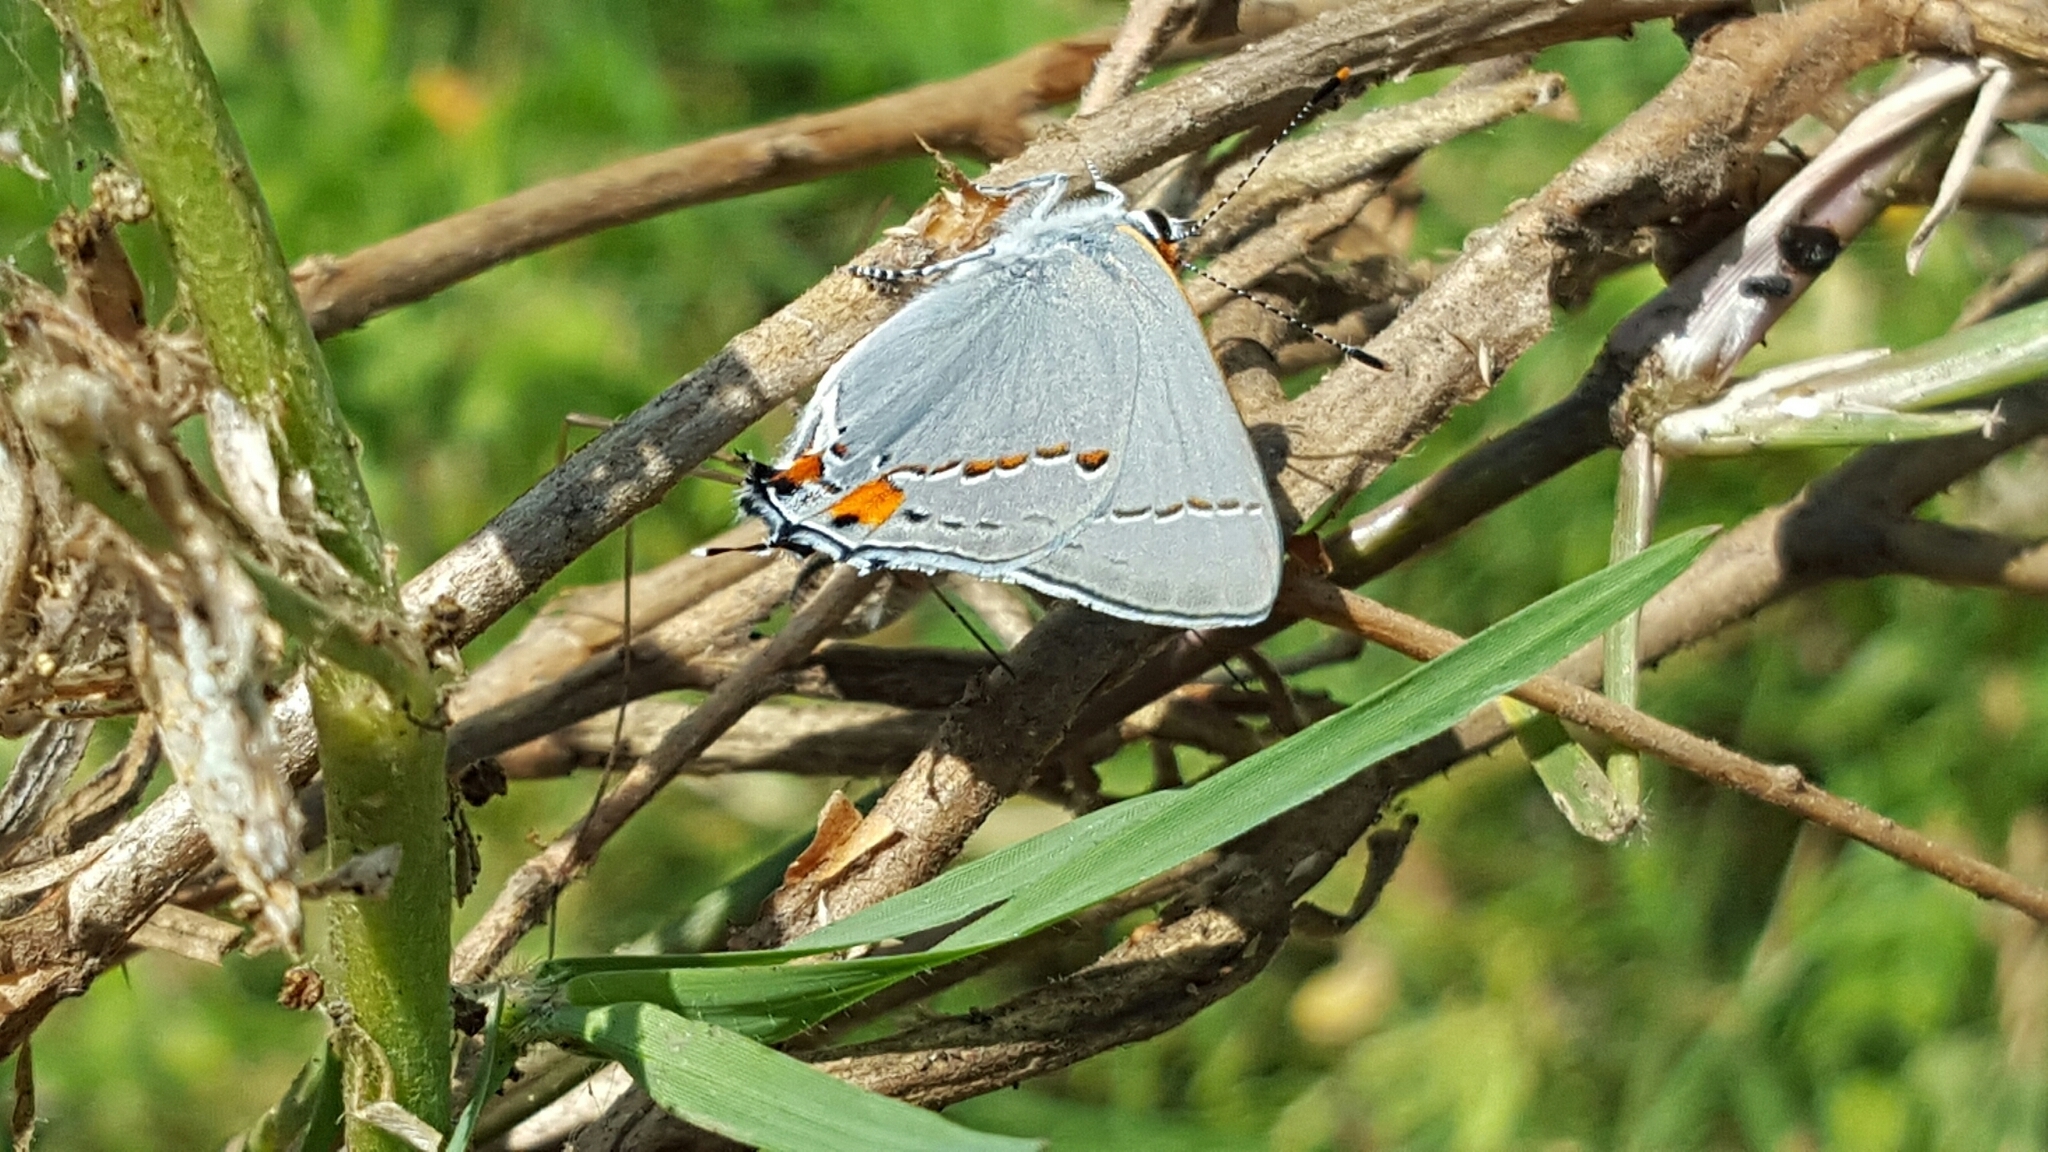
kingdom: Animalia
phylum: Arthropoda
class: Insecta
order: Lepidoptera
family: Lycaenidae
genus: Strymon
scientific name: Strymon melinus
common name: Gray hairstreak
